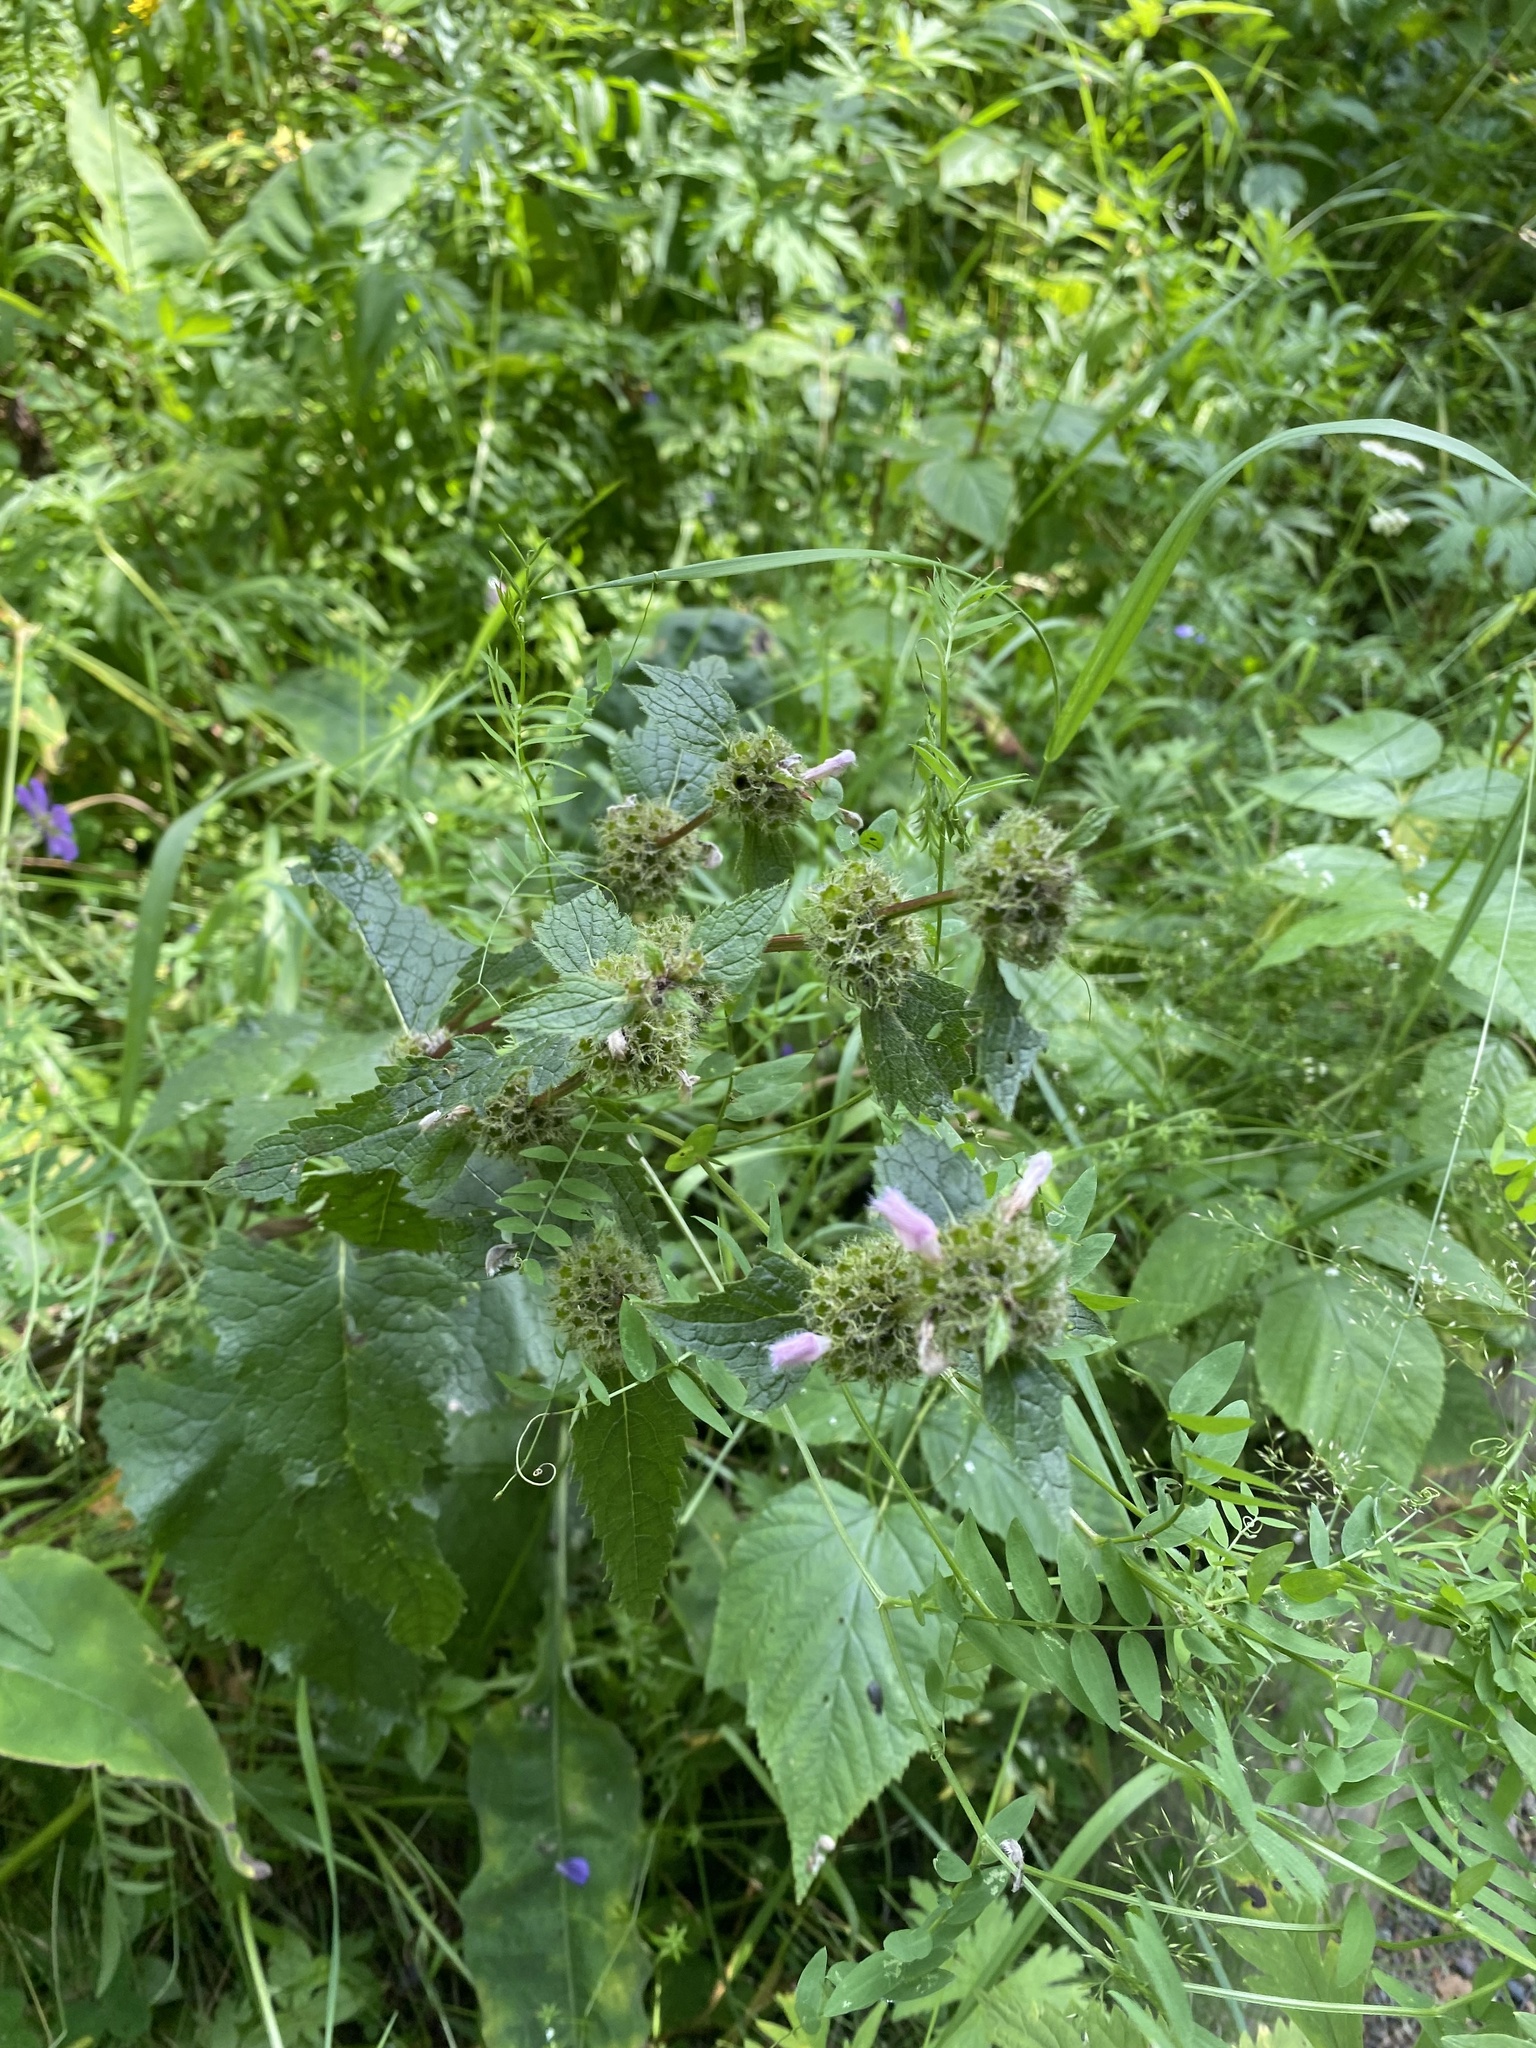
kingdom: Plantae
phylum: Tracheophyta
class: Magnoliopsida
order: Lamiales
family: Lamiaceae
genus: Phlomoides
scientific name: Phlomoides tuberosa
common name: Tuberous jerusalem sage
